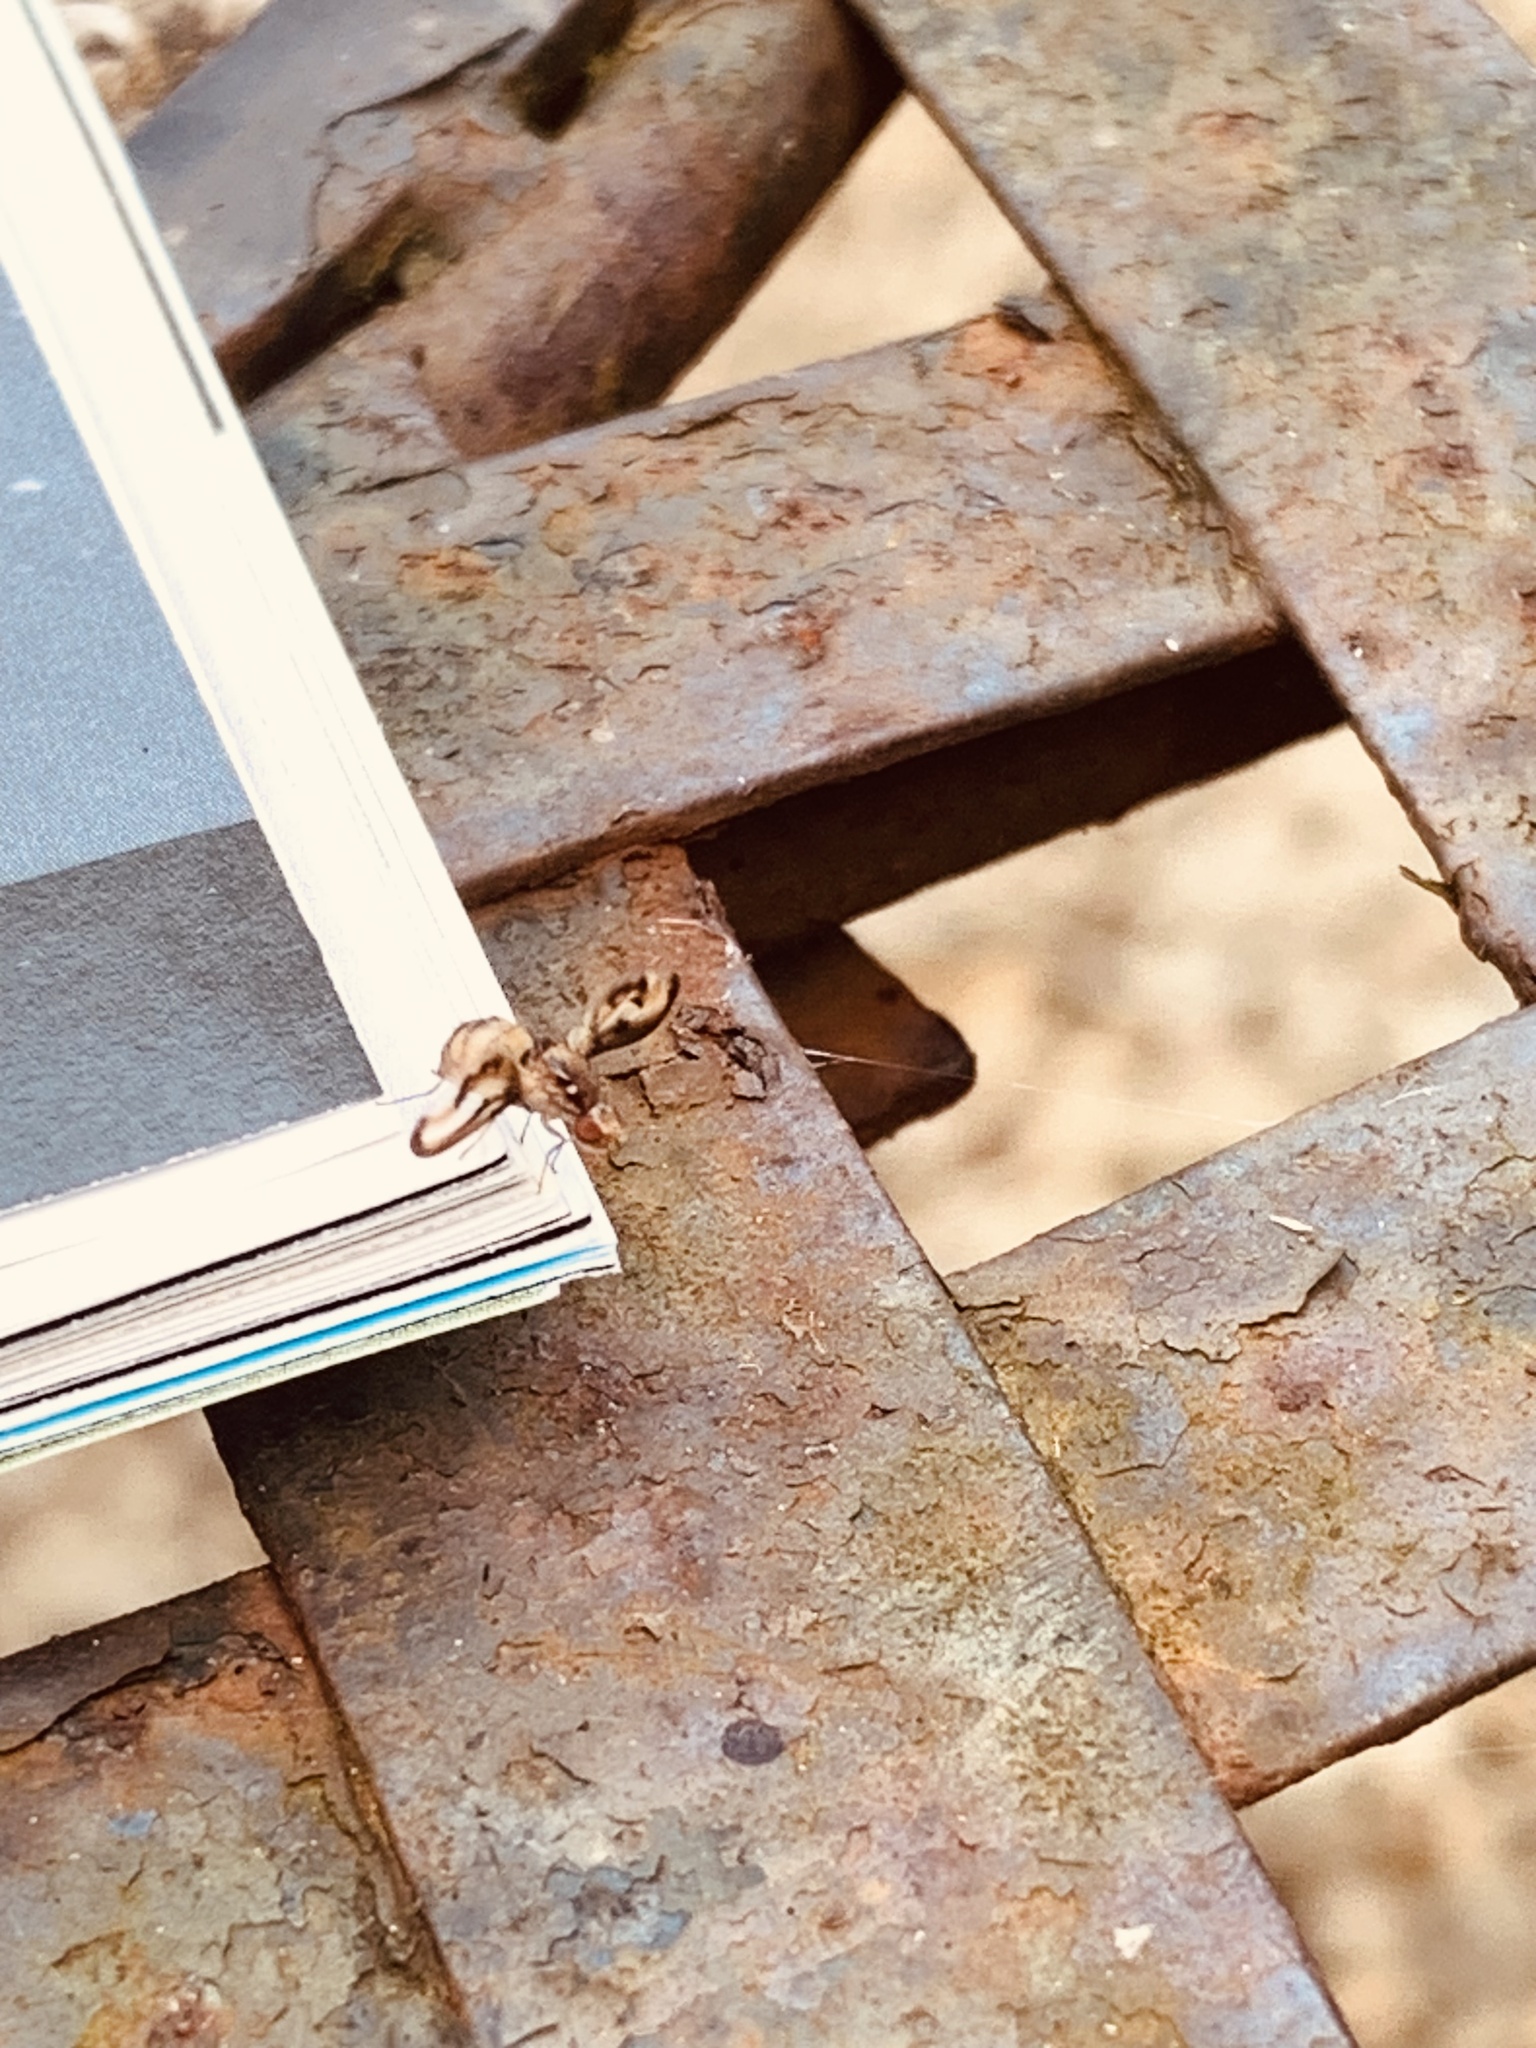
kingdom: Animalia
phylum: Arthropoda
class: Insecta
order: Diptera
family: Pallopteridae
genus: Toxonevra
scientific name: Toxonevra muliebris
